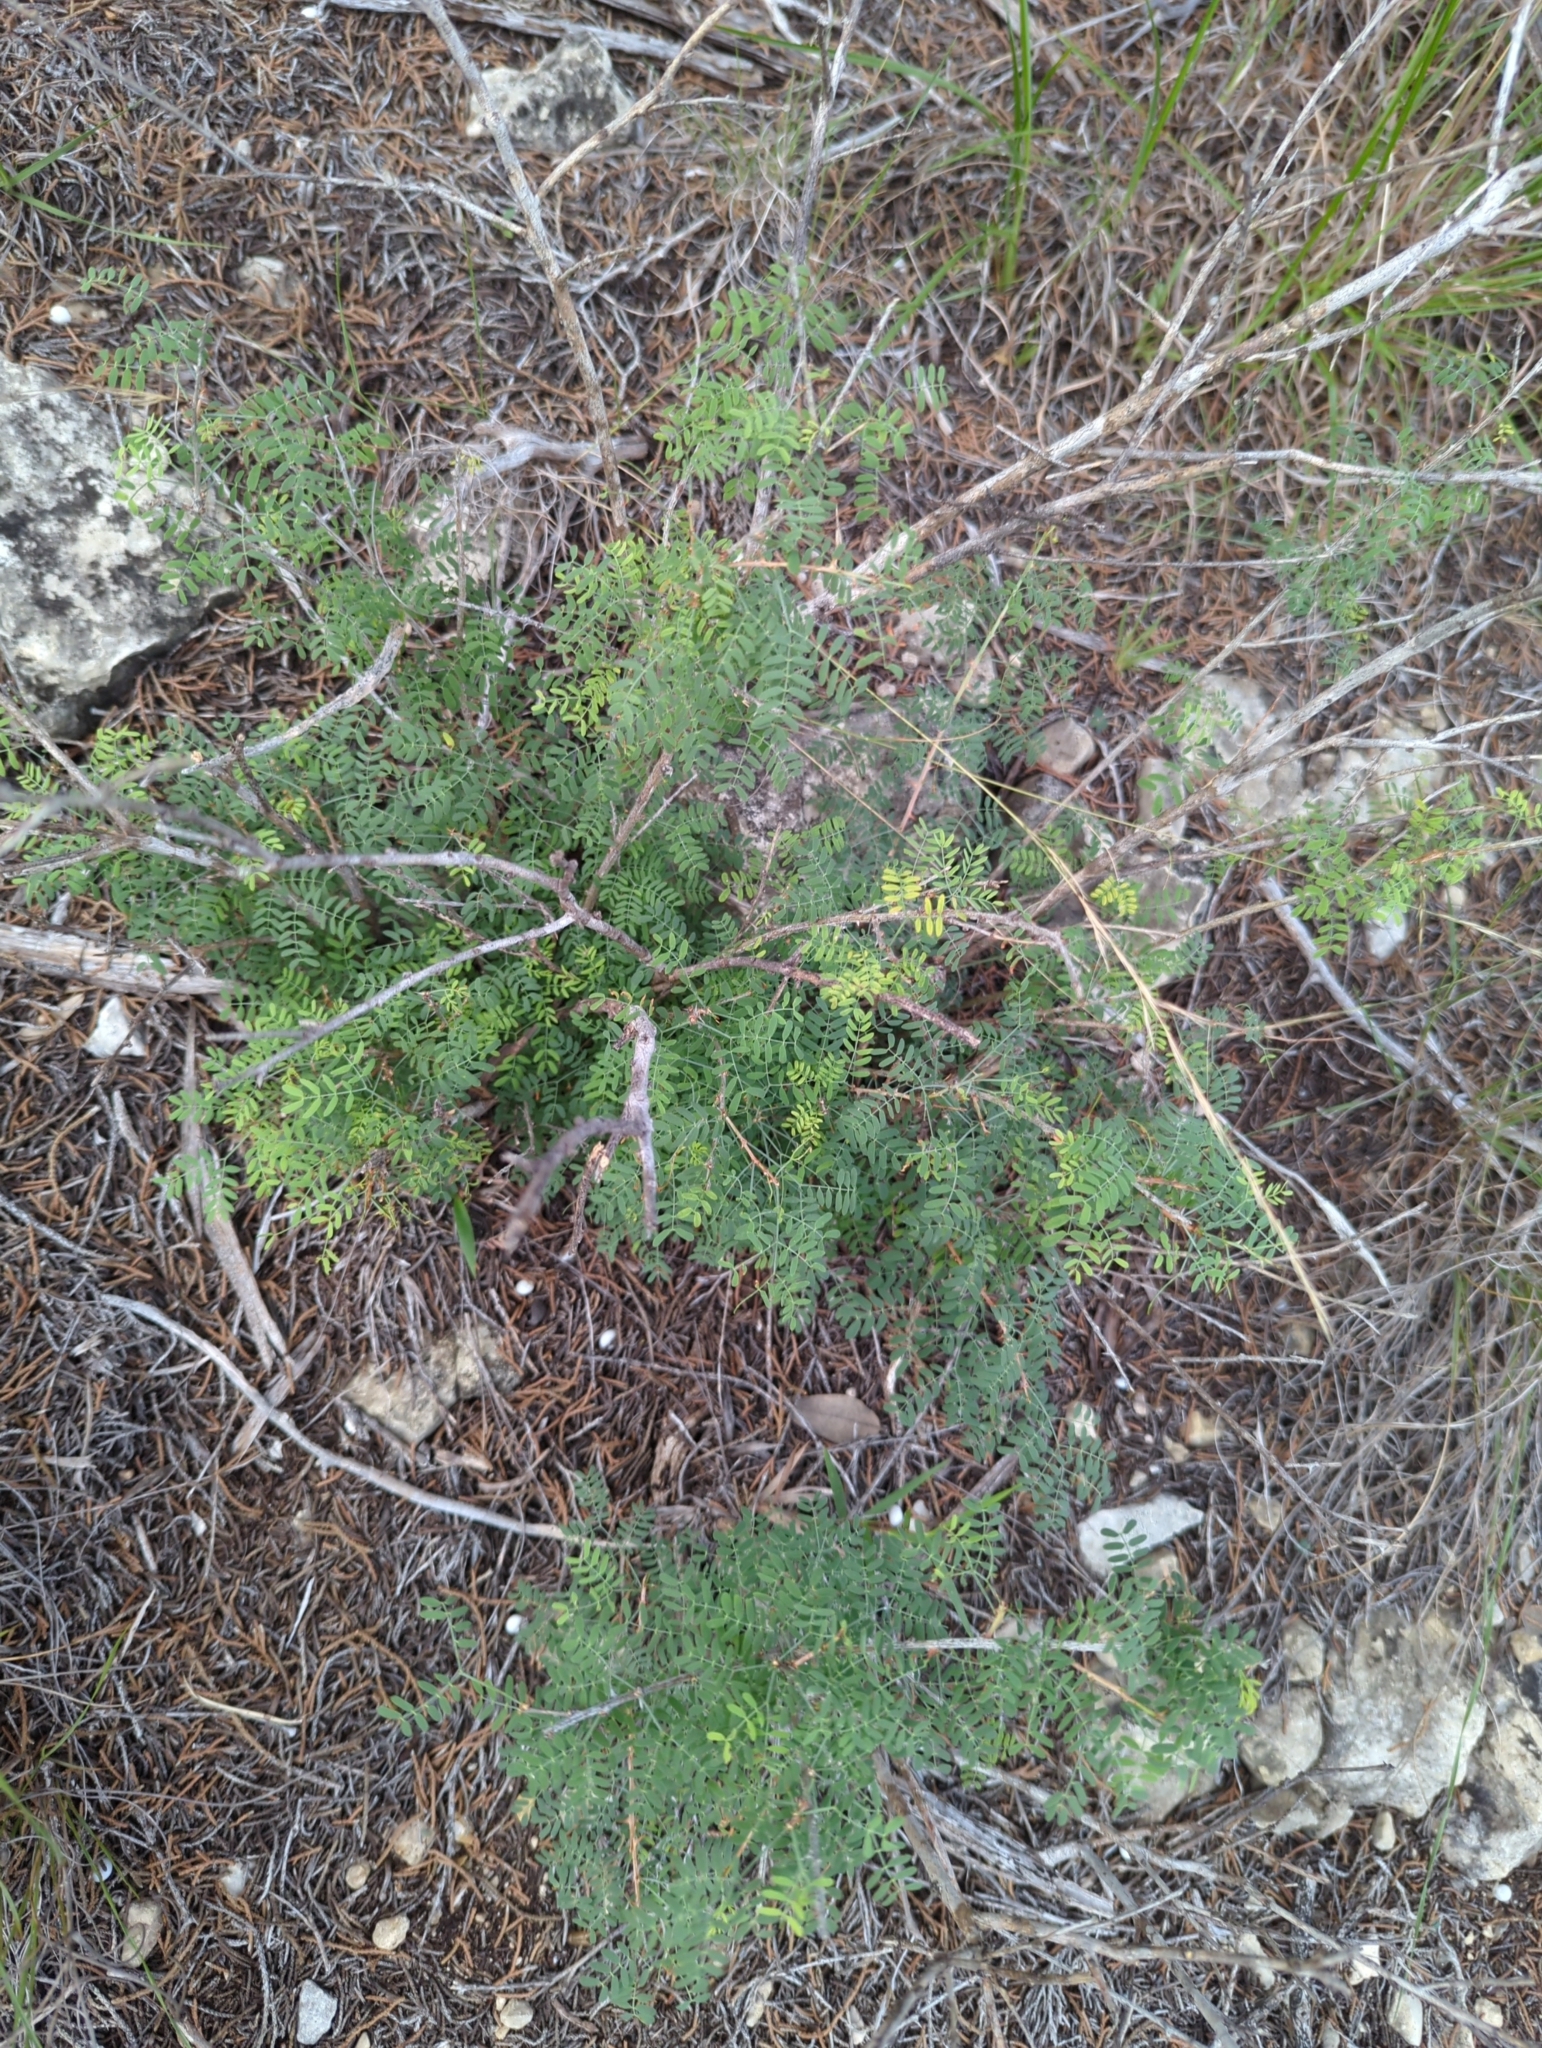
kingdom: Plantae
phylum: Tracheophyta
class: Magnoliopsida
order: Fabales
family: Fabaceae
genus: Mimosa
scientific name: Mimosa borealis
